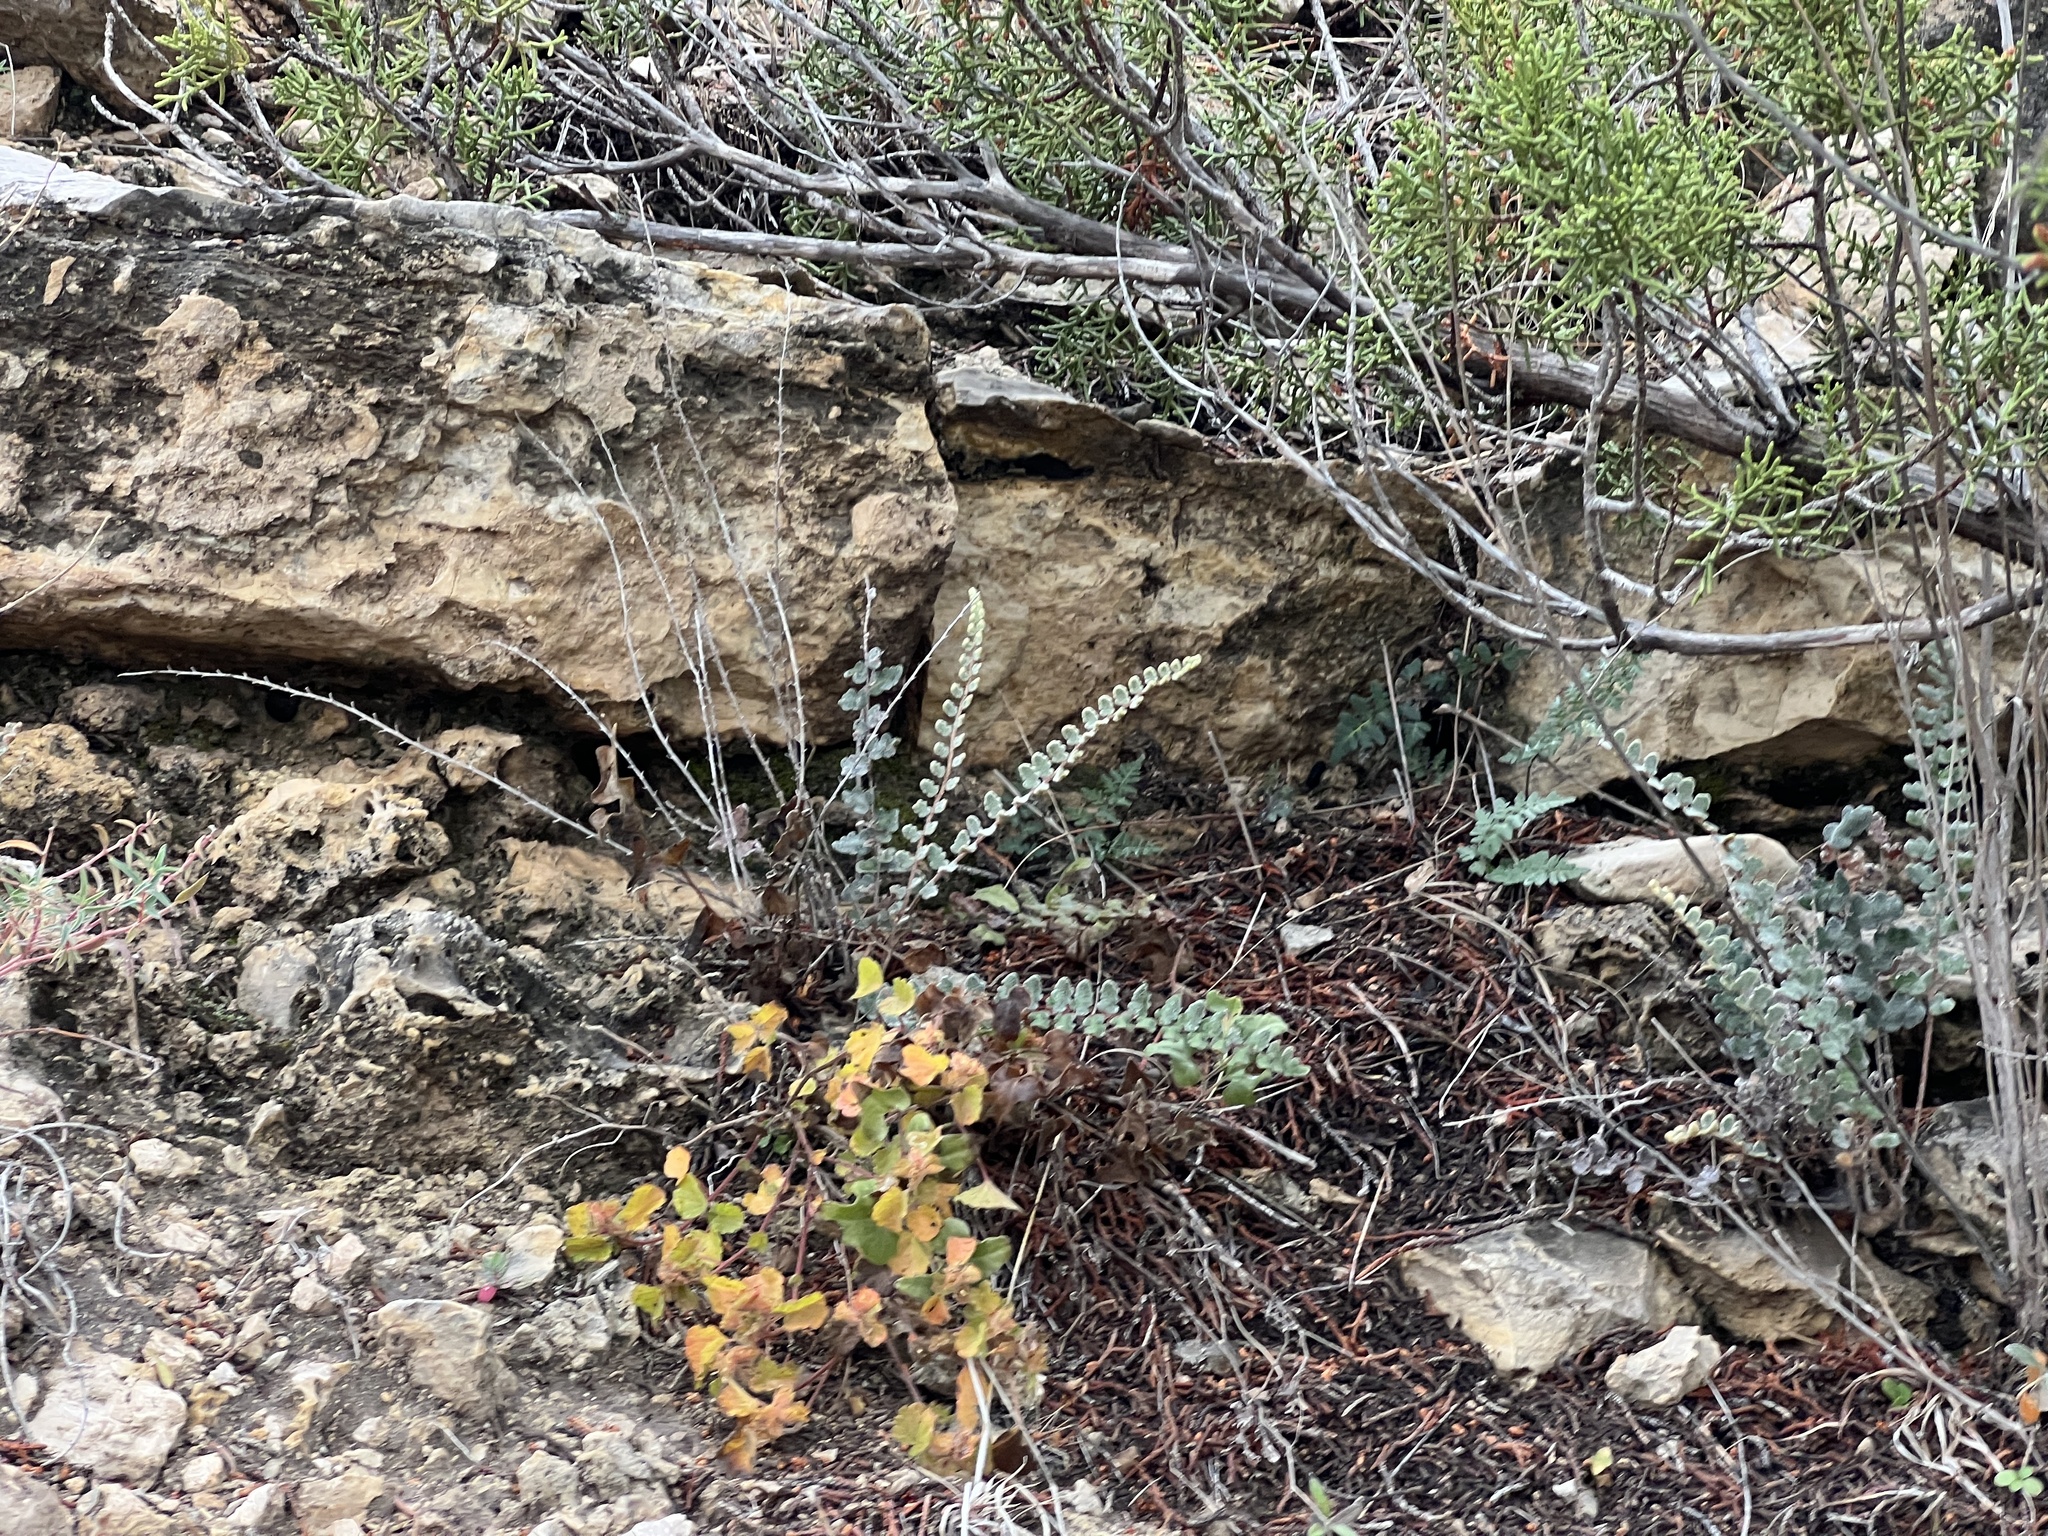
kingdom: Plantae
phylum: Tracheophyta
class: Polypodiopsida
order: Polypodiales
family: Pteridaceae
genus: Astrolepis
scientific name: Astrolepis integerrima
